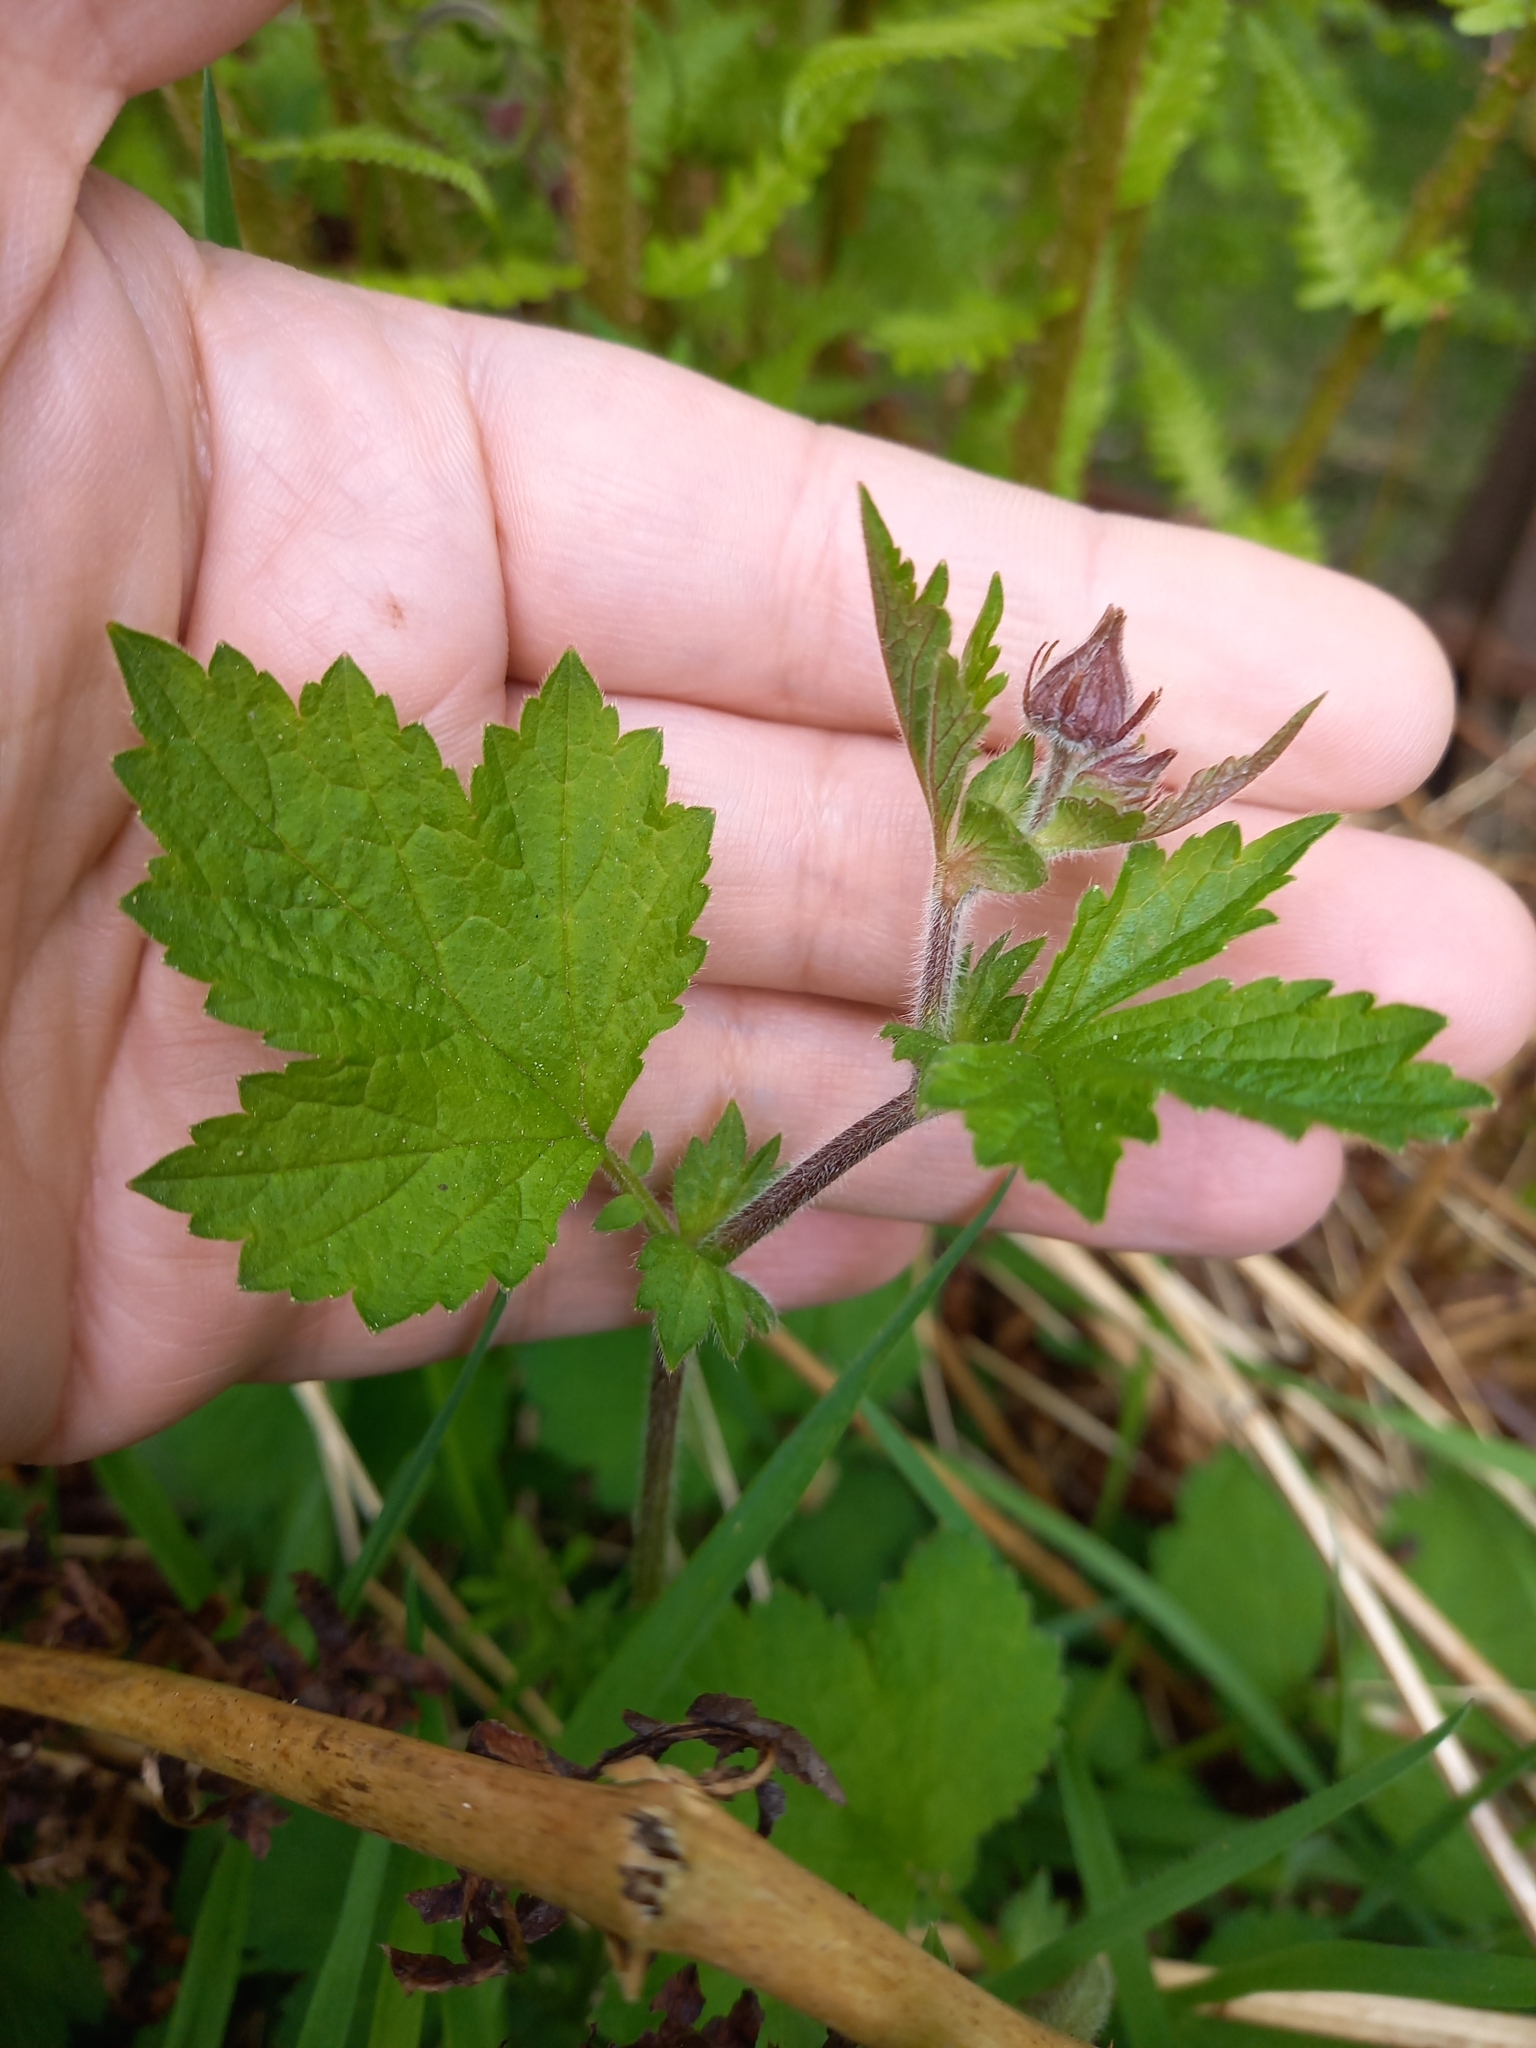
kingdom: Plantae
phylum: Tracheophyta
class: Magnoliopsida
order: Rosales
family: Rosaceae
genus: Geum
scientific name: Geum rivale
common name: Water avens
